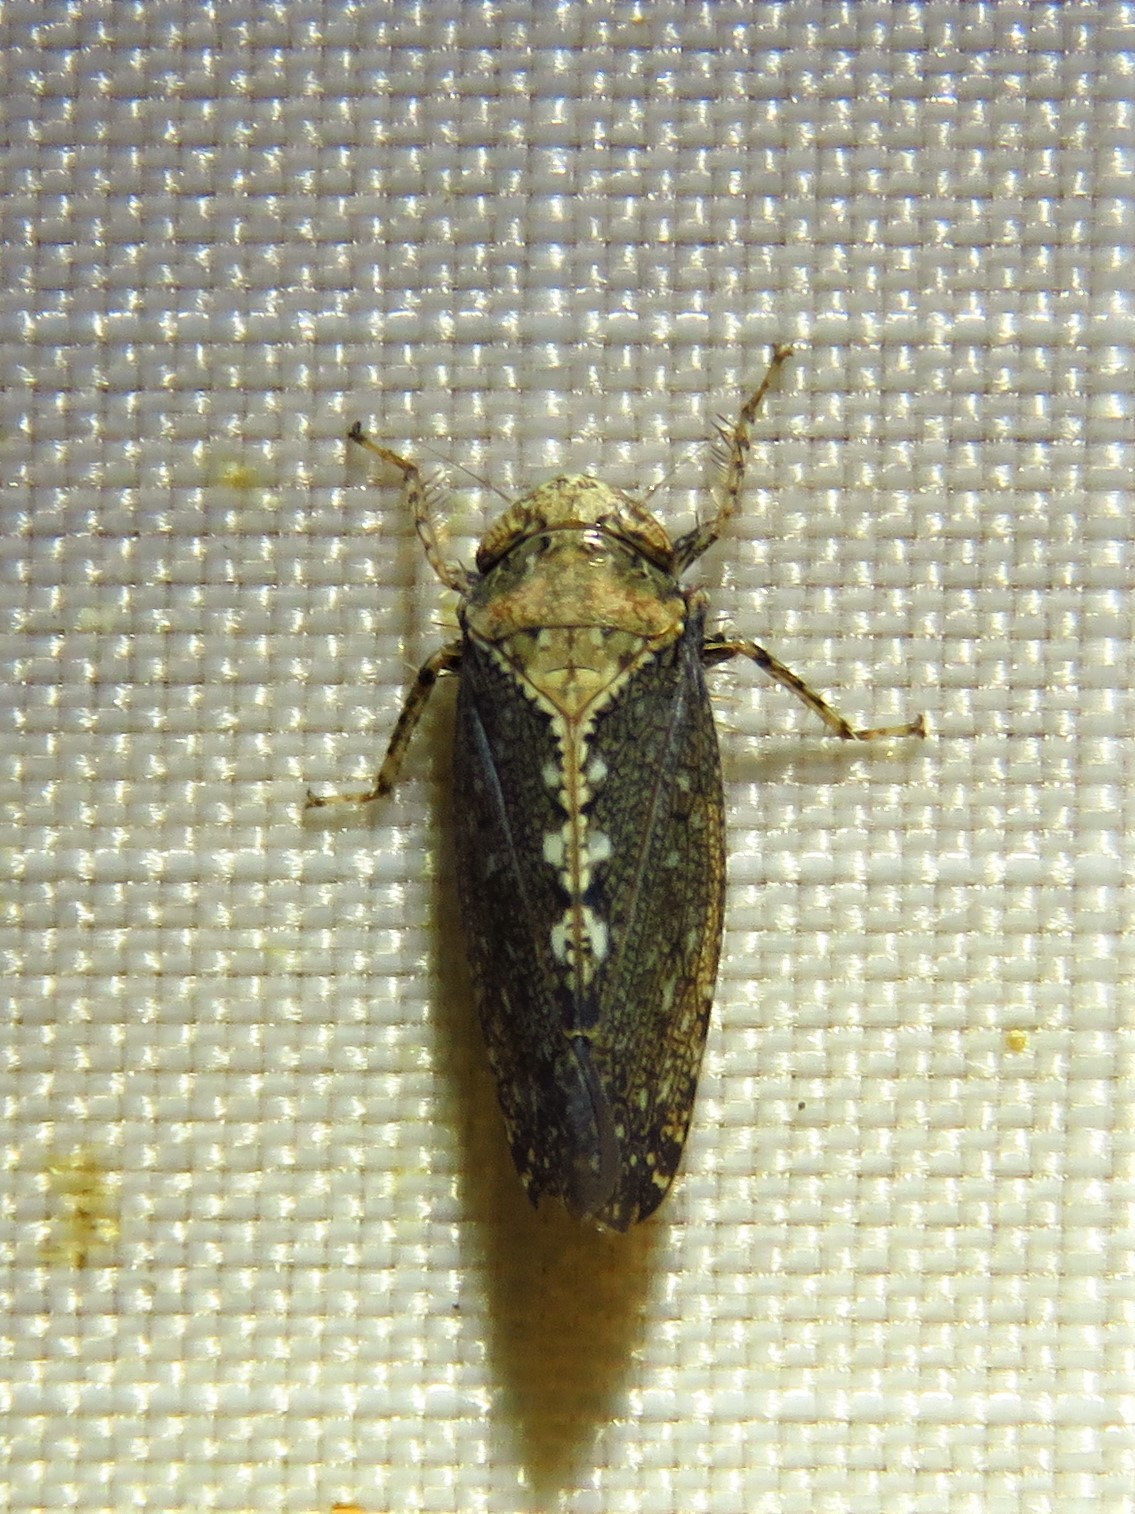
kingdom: Animalia
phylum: Arthropoda
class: Insecta
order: Hemiptera
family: Cicadellidae
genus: Excultanus
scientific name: Excultanus excultus
